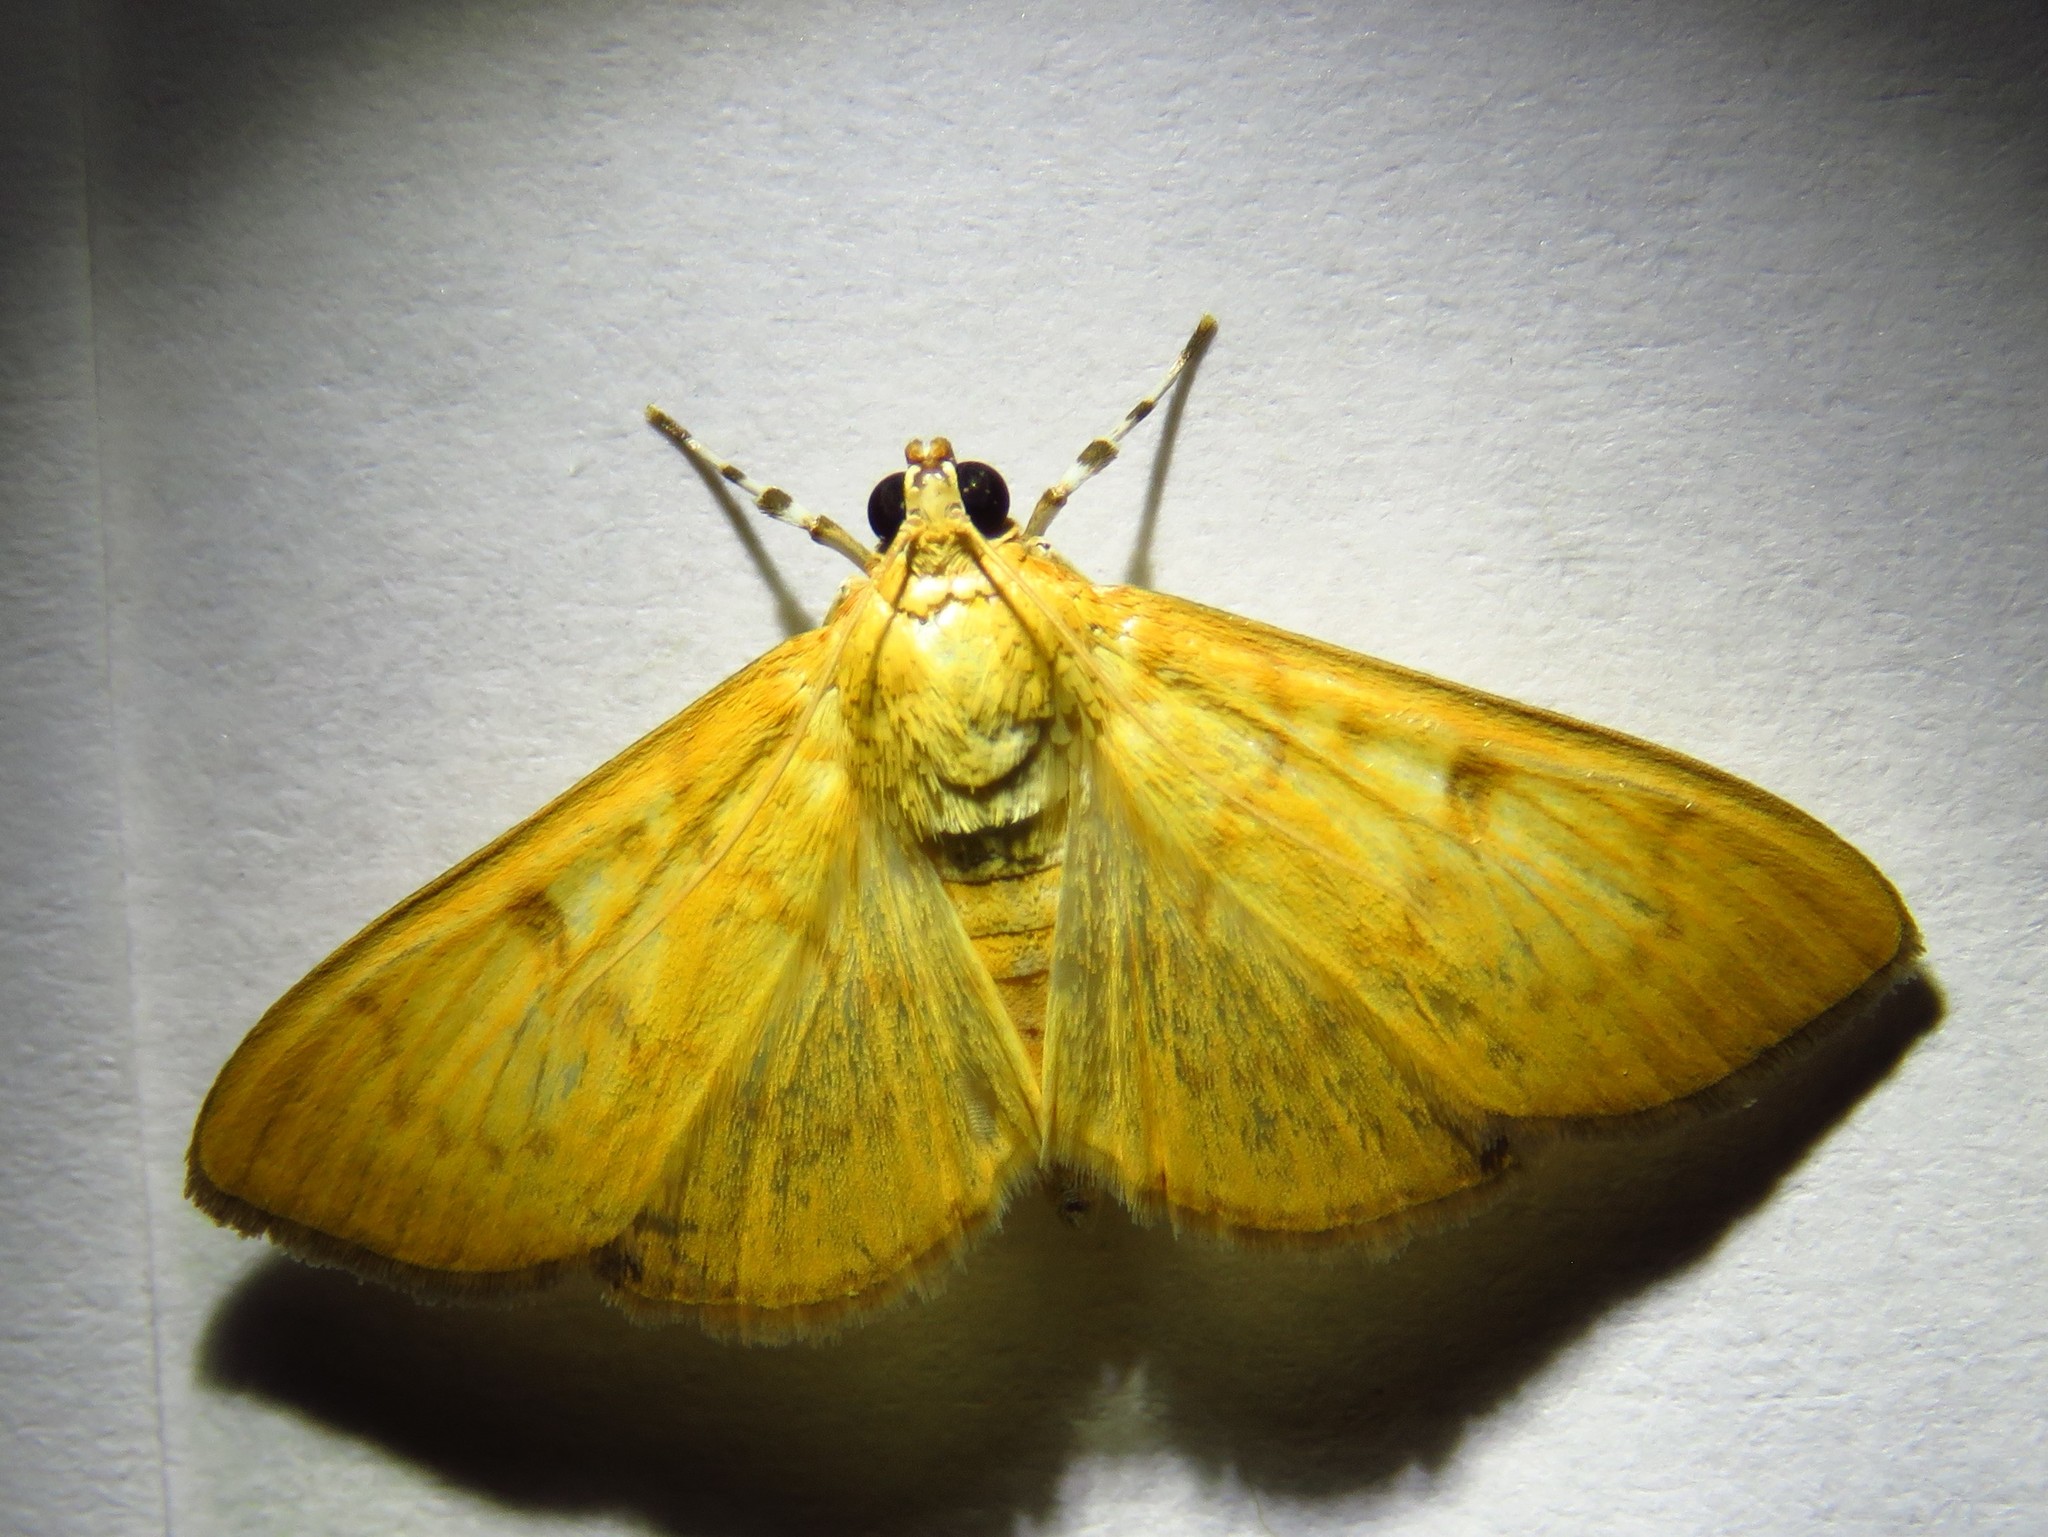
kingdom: Animalia
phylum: Arthropoda
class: Insecta
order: Lepidoptera
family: Crambidae
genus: Condylorrhiza
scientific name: Condylorrhiza vestigialis
